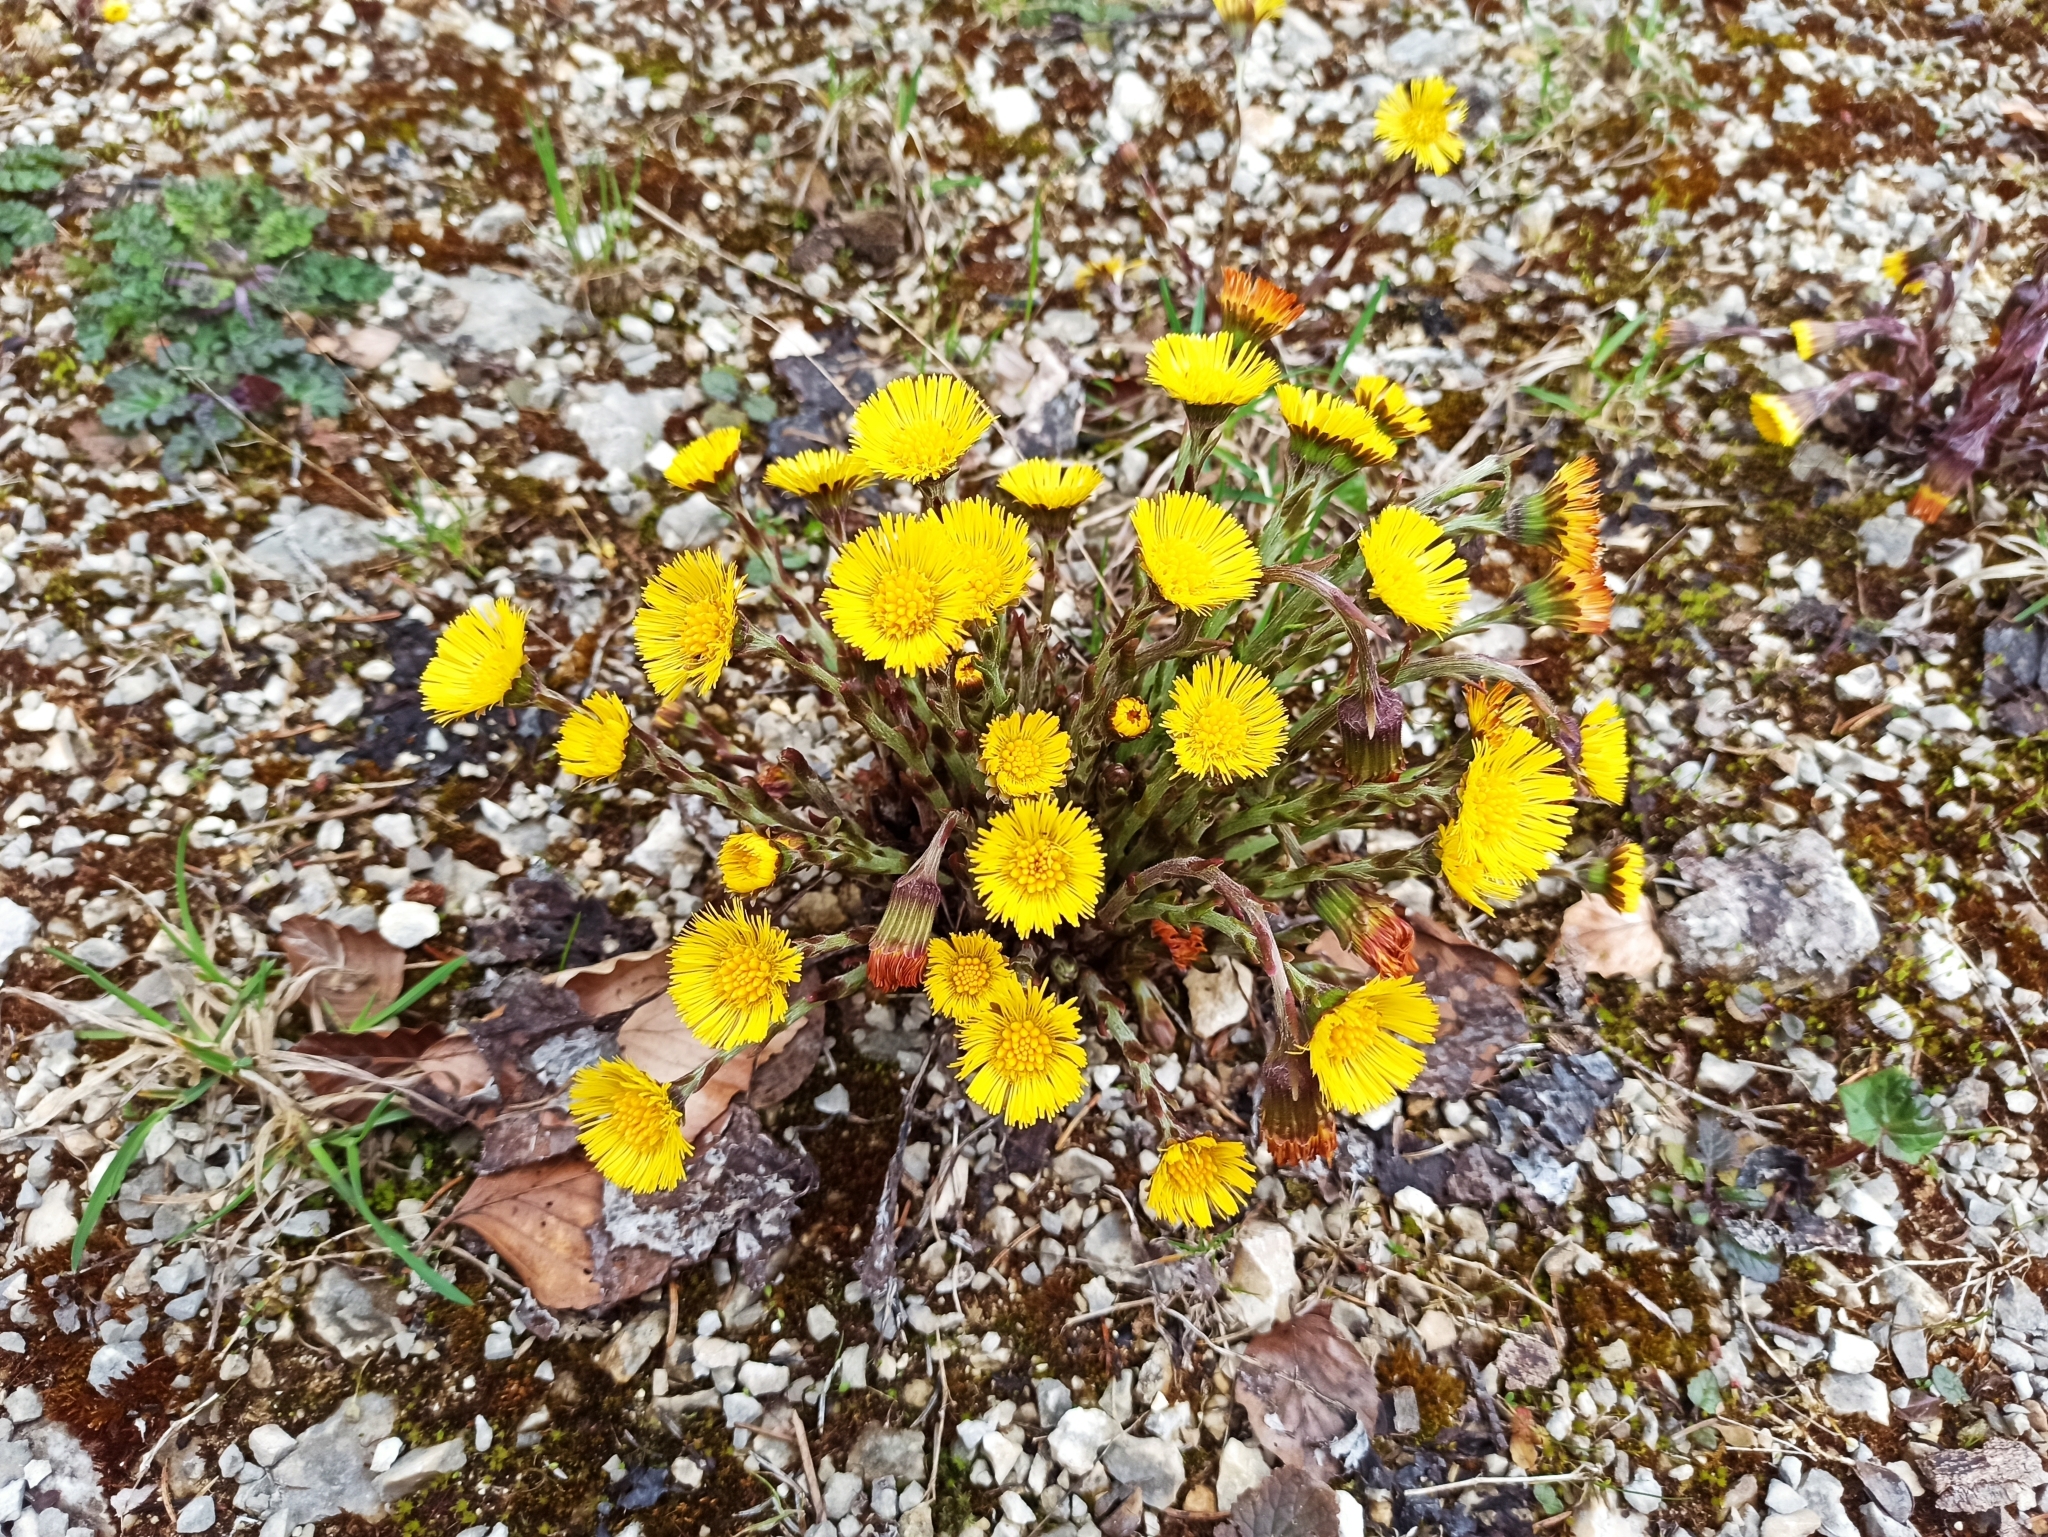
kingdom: Plantae
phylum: Tracheophyta
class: Magnoliopsida
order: Asterales
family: Asteraceae
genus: Tussilago
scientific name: Tussilago farfara
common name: Coltsfoot
